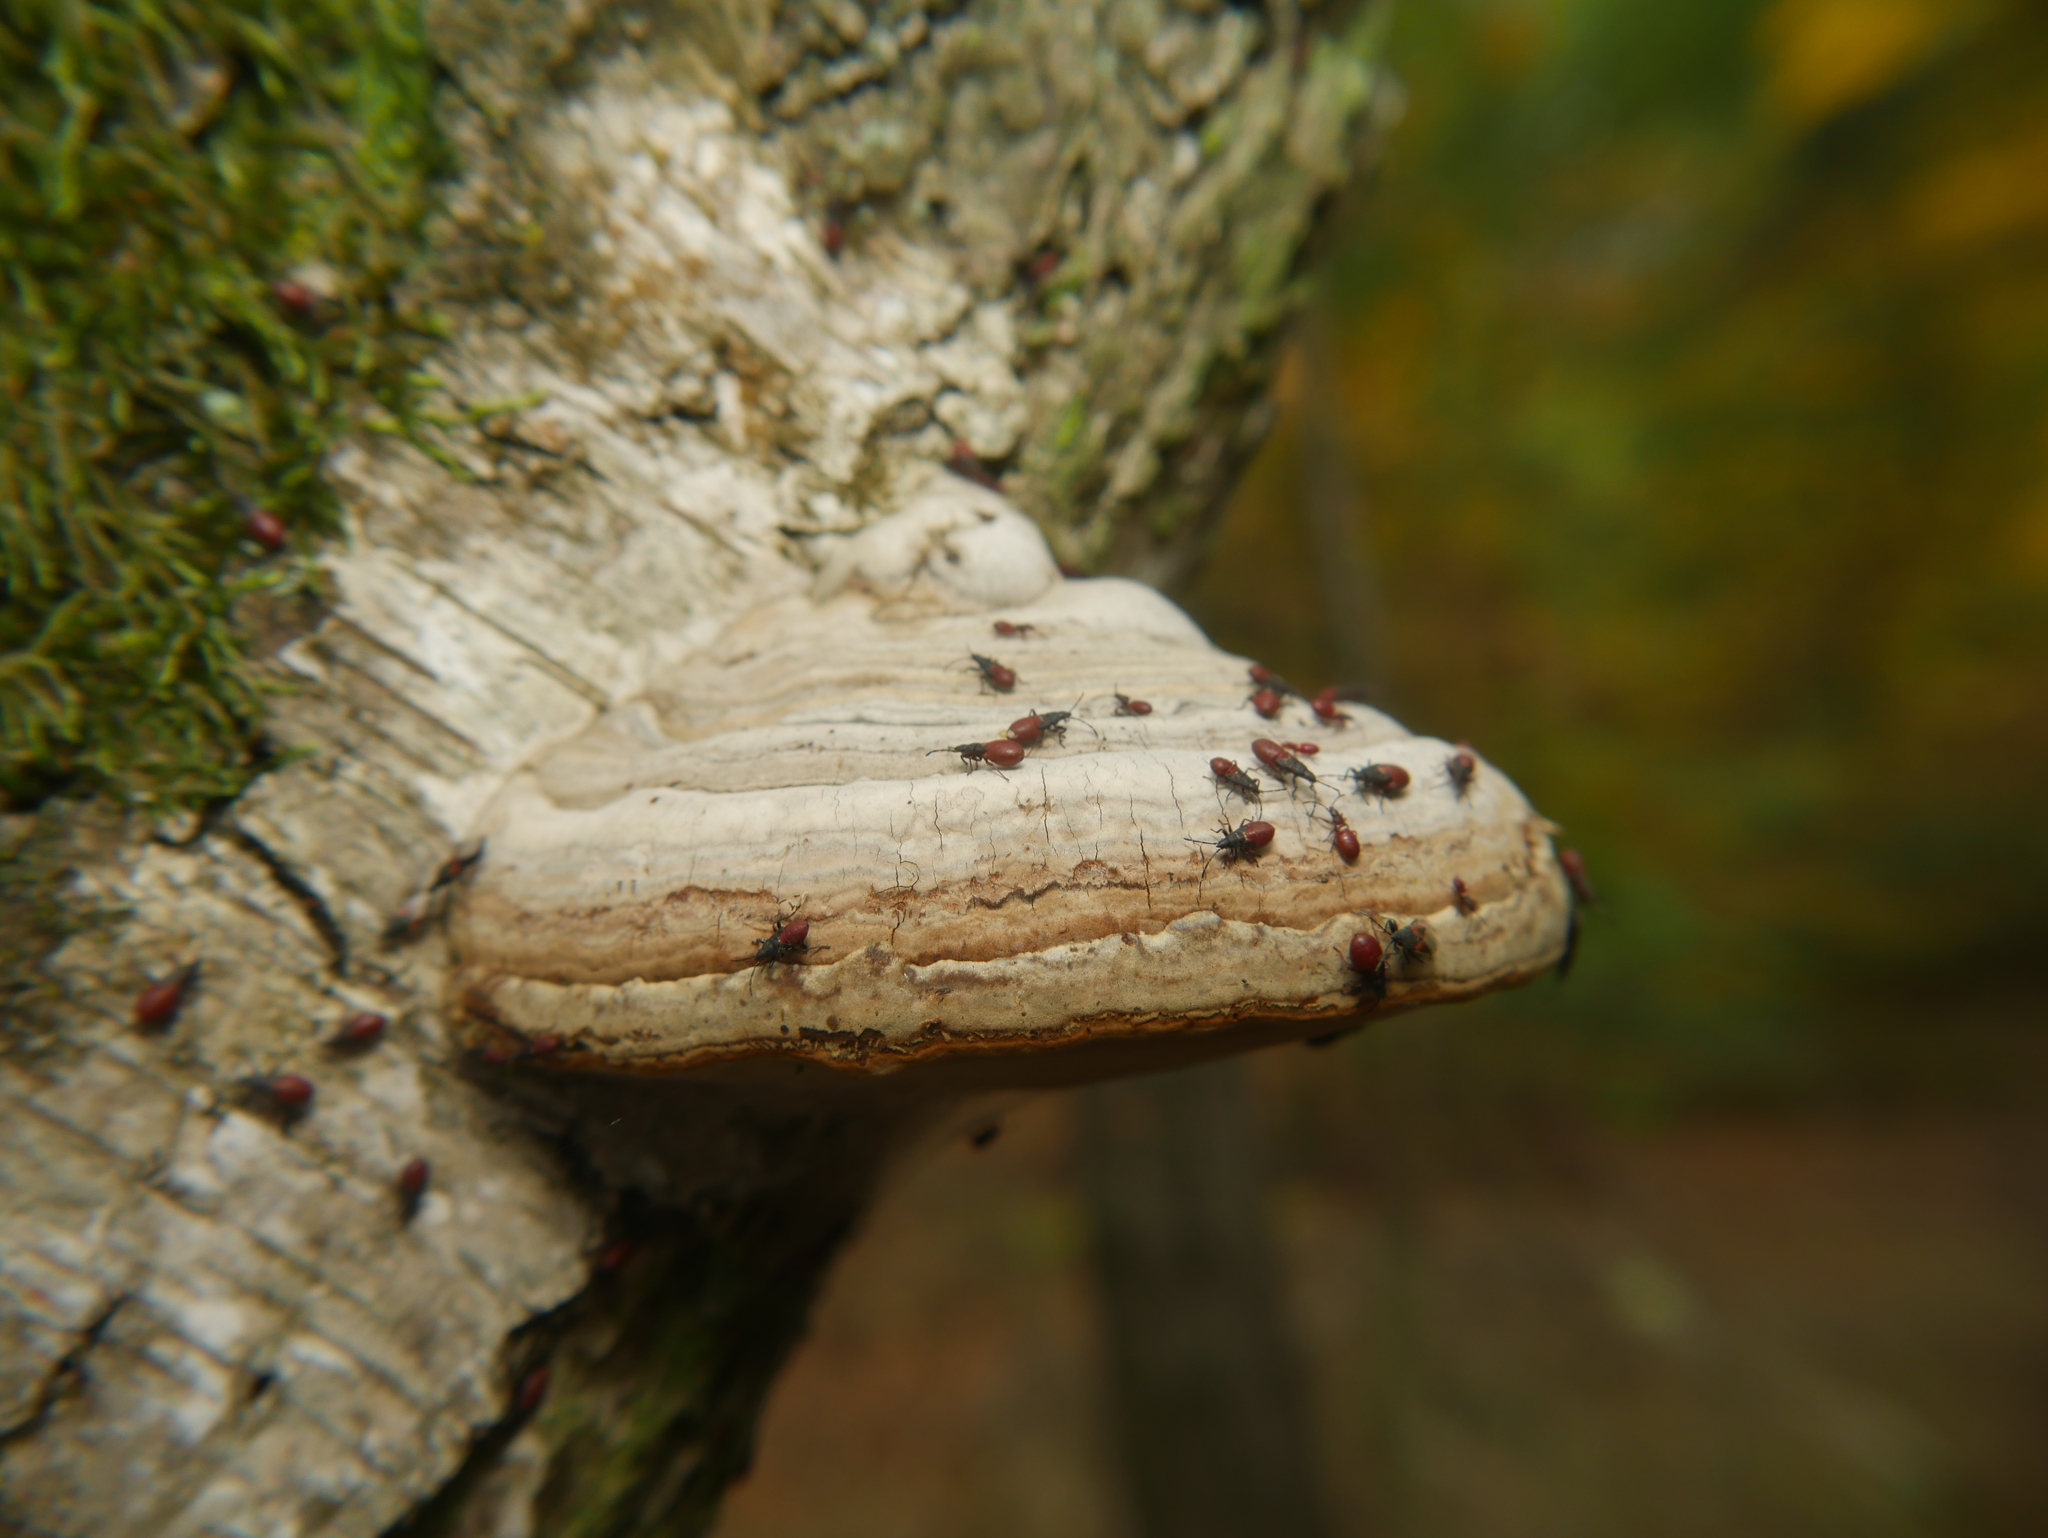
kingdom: Fungi
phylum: Basidiomycota
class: Agaricomycetes
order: Polyporales
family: Polyporaceae
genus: Fomes
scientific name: Fomes fomentarius
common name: Hoof fungus
